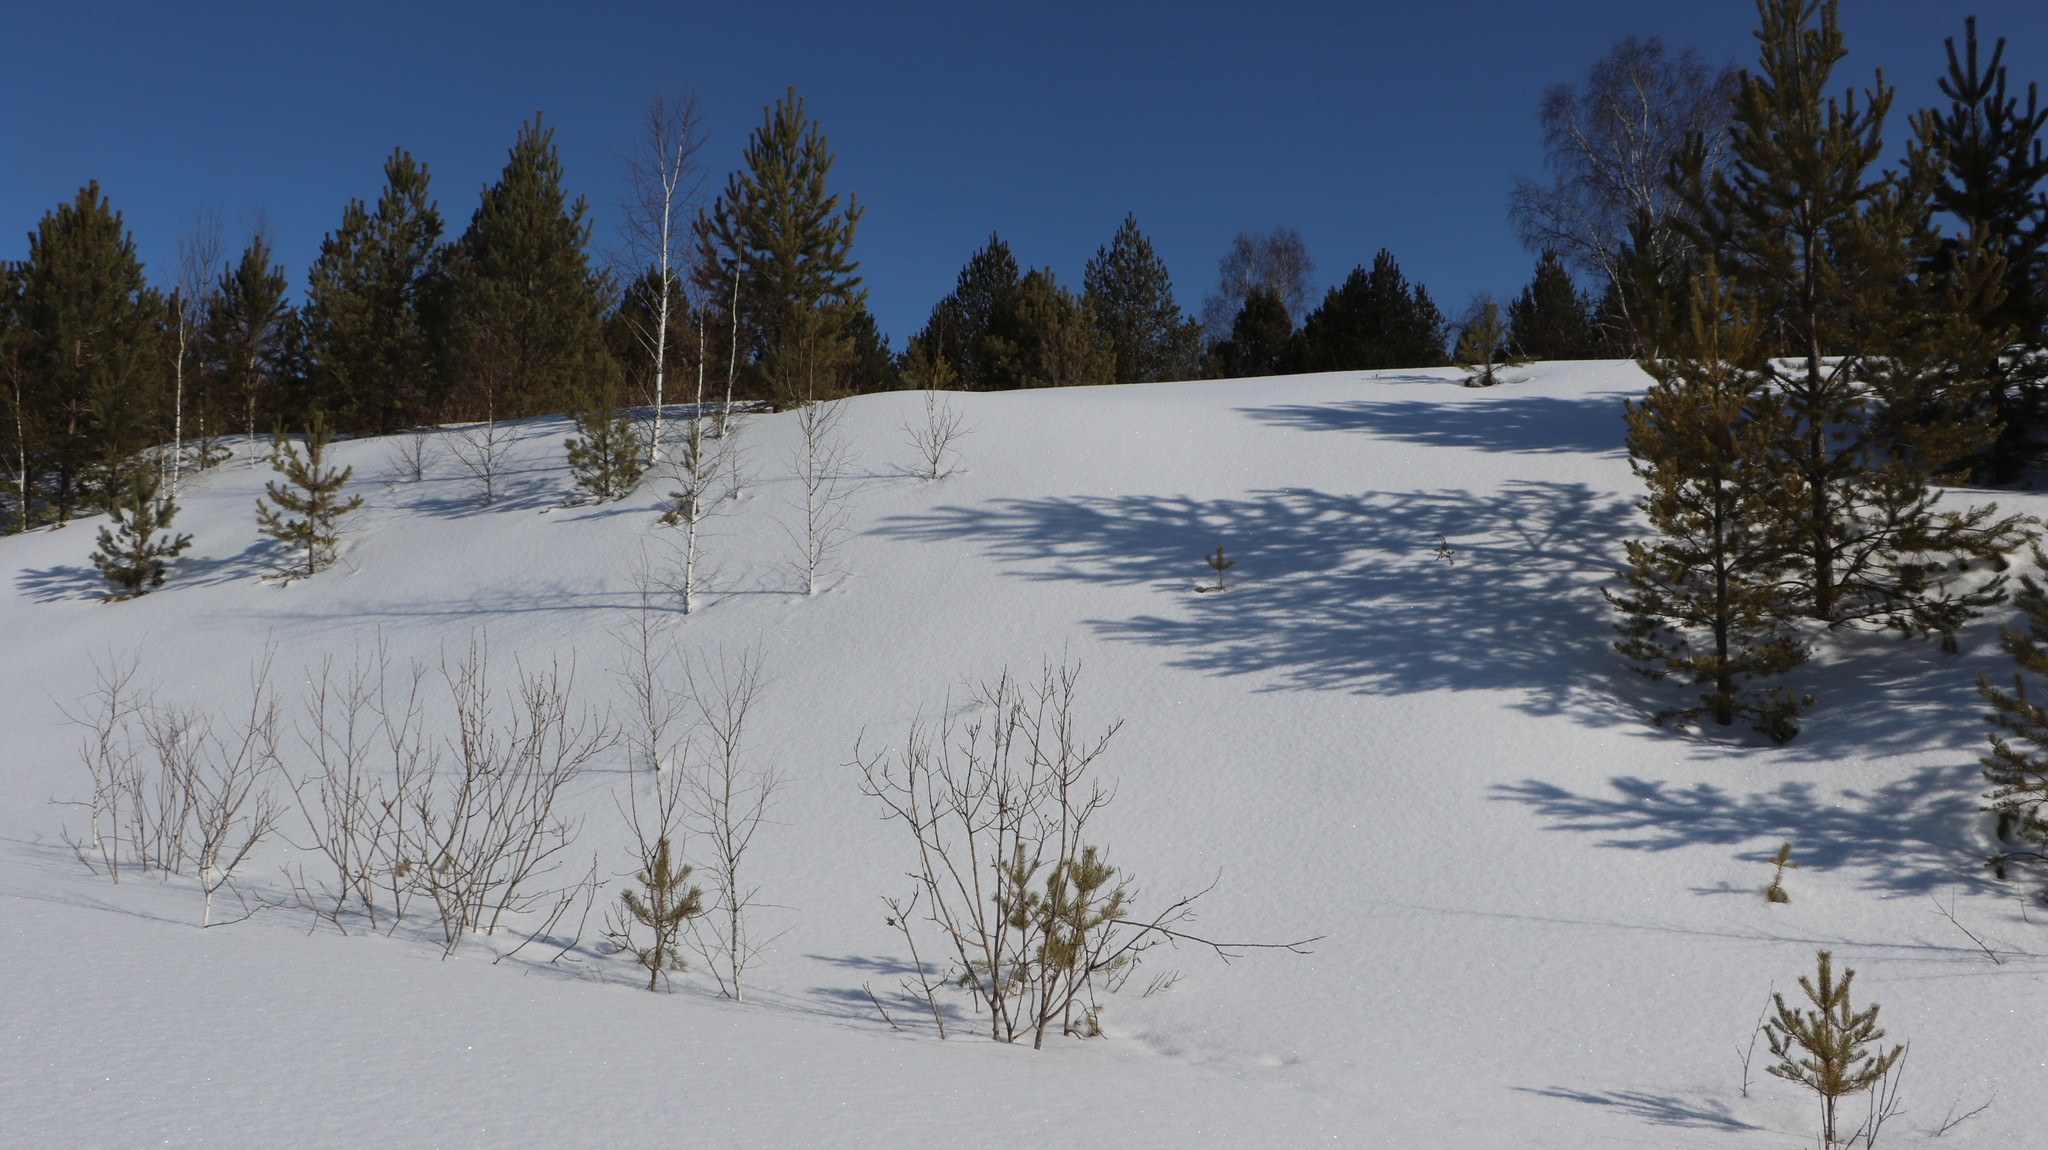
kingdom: Plantae
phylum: Tracheophyta
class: Pinopsida
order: Pinales
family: Pinaceae
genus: Pinus
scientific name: Pinus sylvestris
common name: Scots pine
